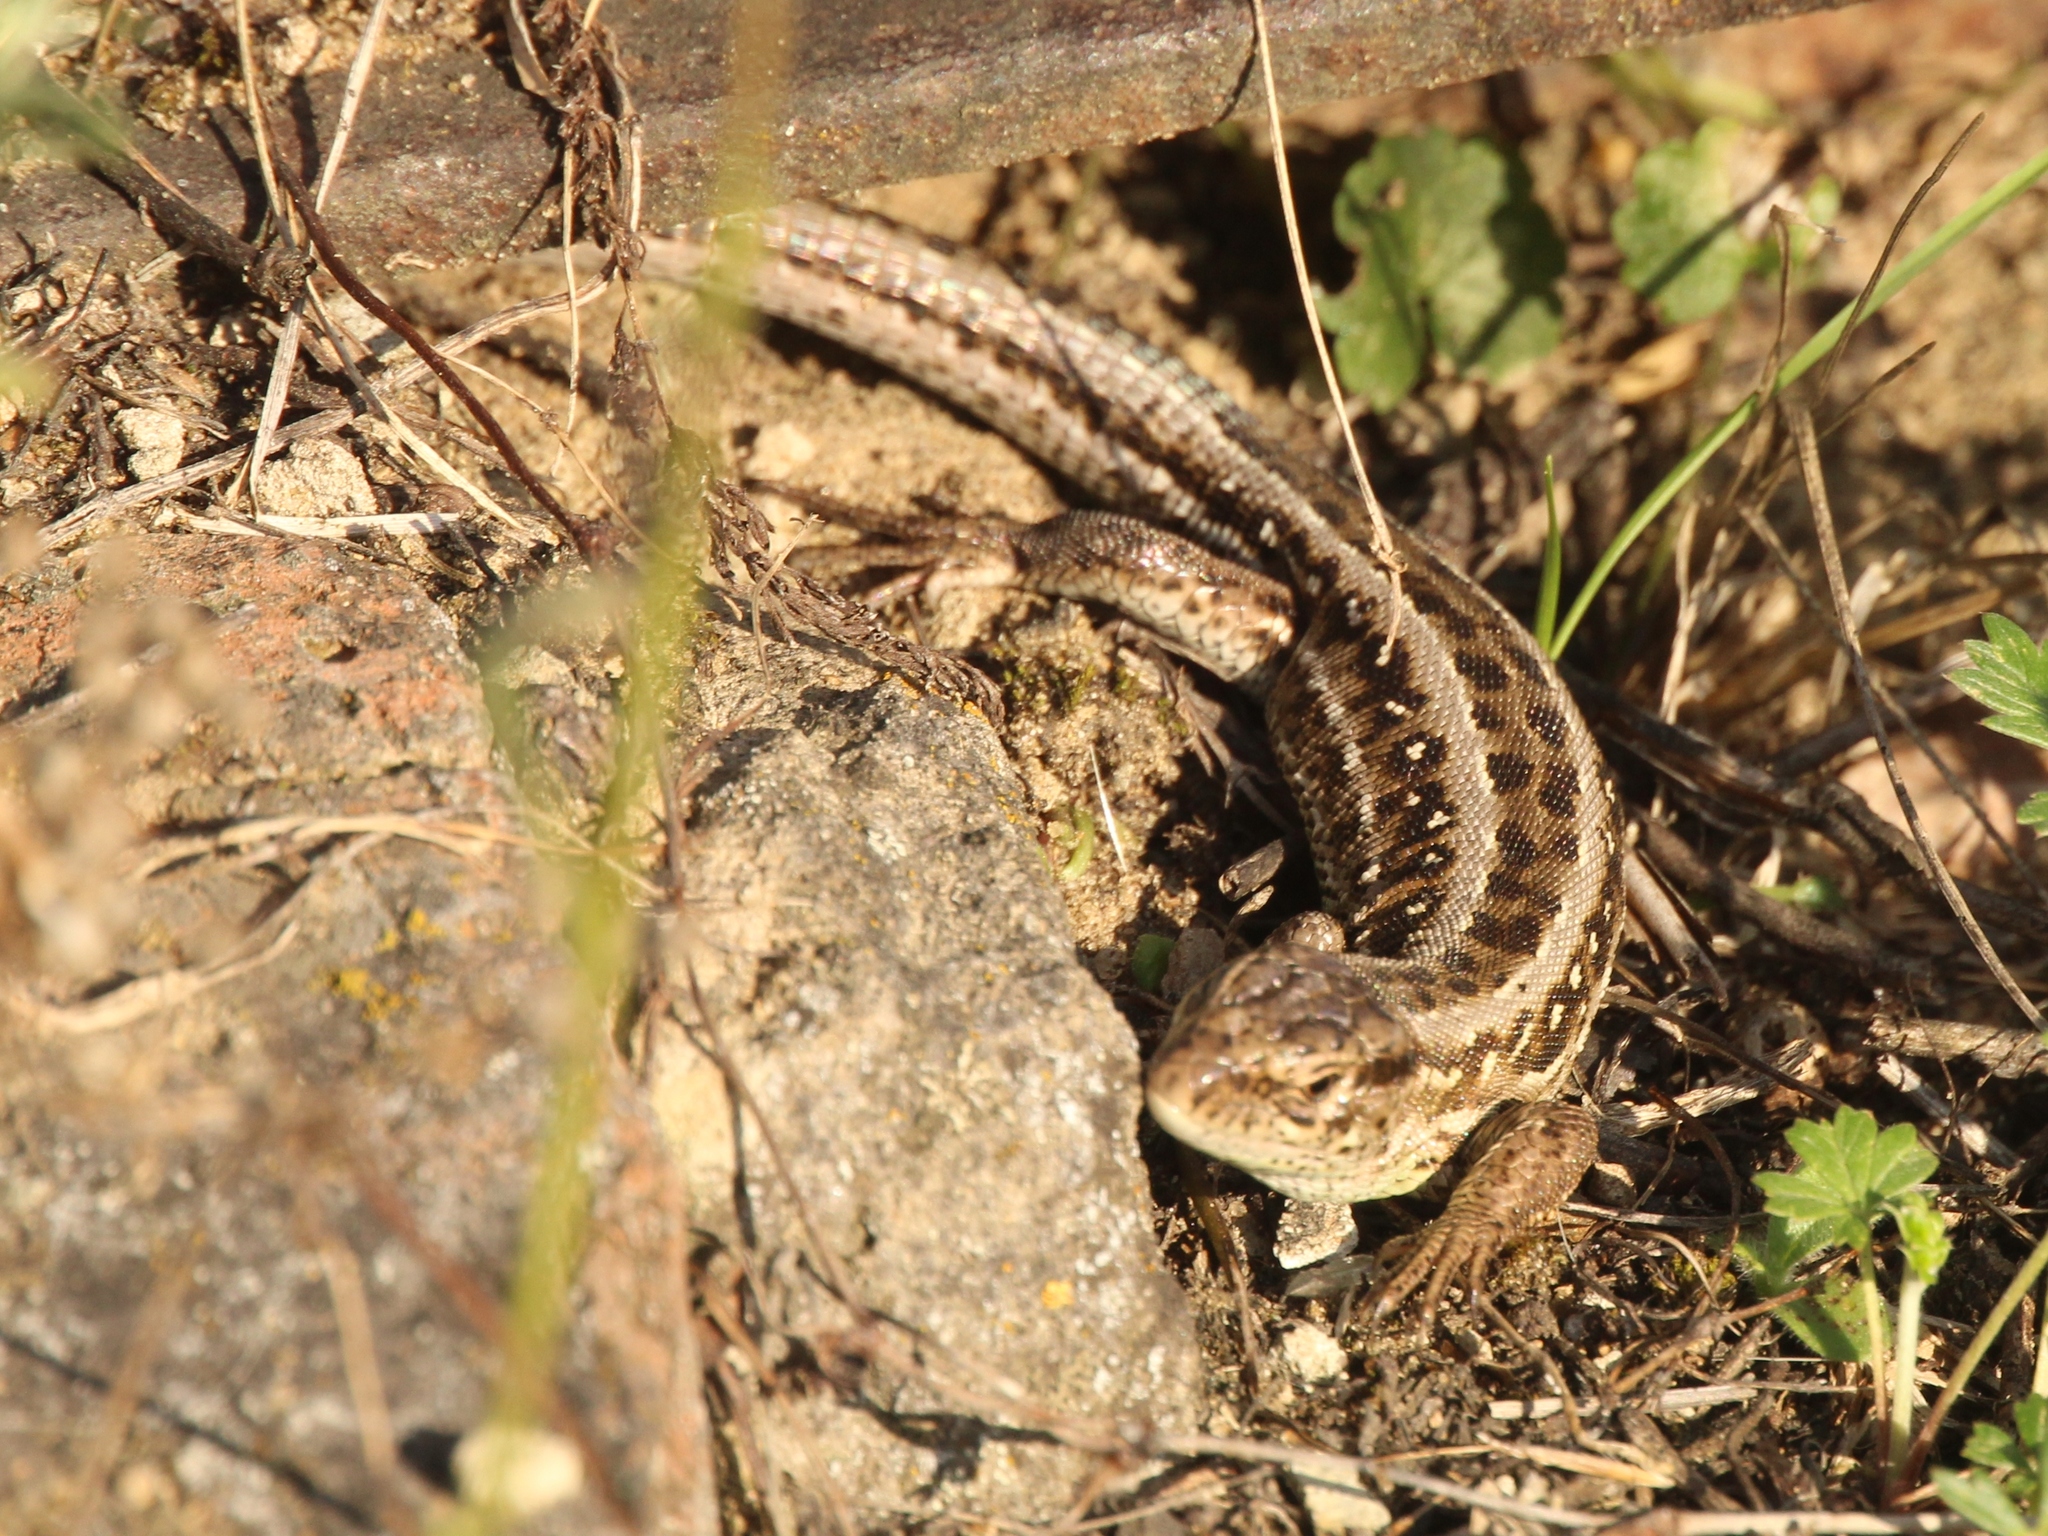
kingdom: Animalia
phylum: Chordata
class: Squamata
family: Lacertidae
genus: Lacerta
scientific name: Lacerta agilis
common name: Sand lizard
